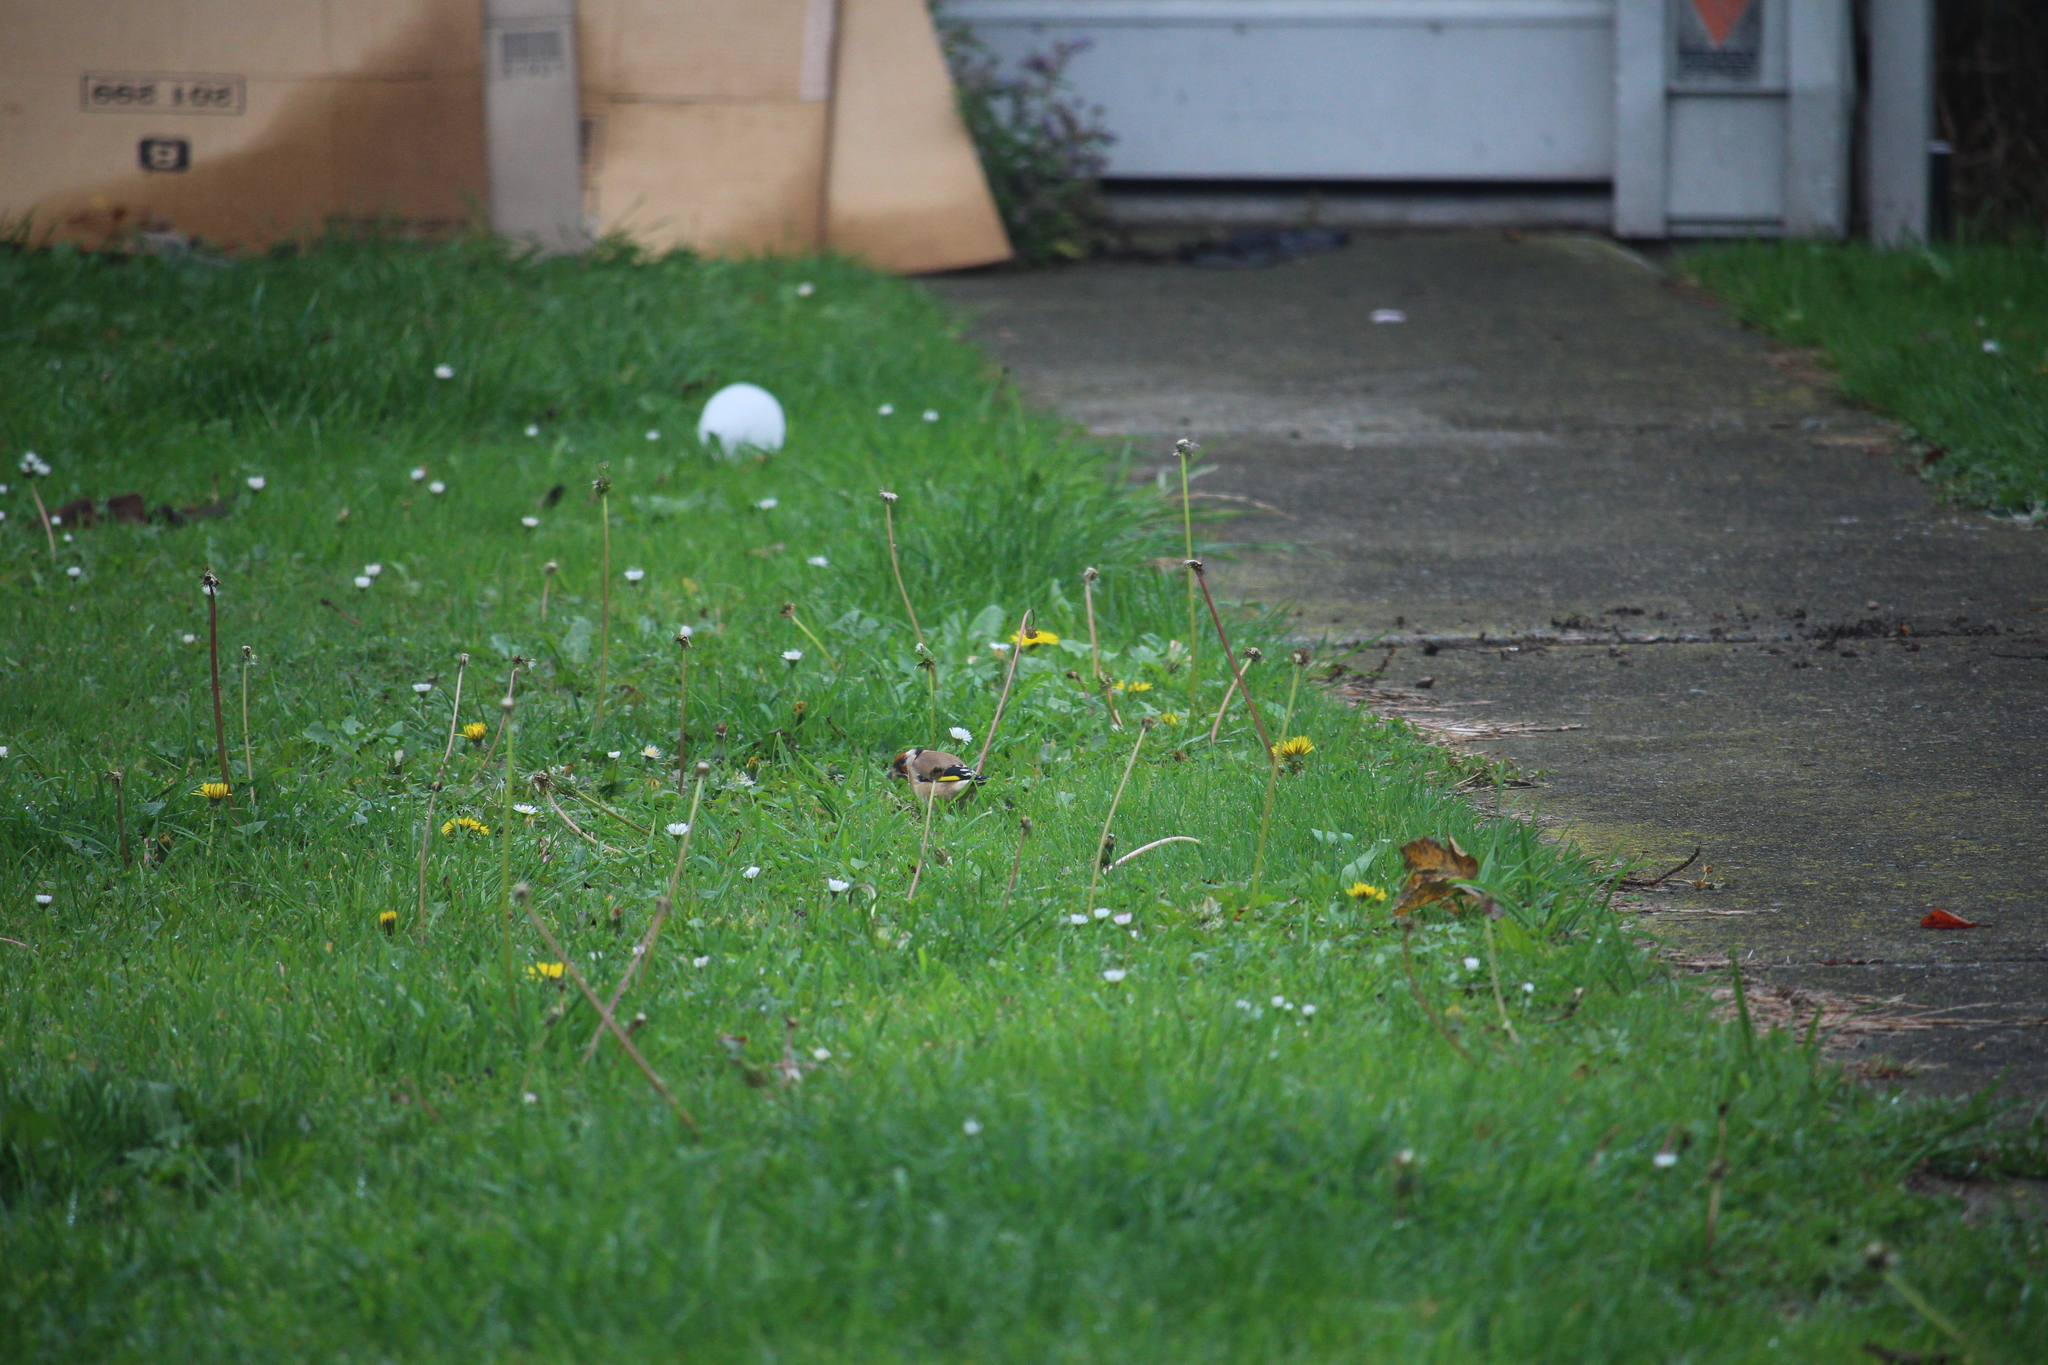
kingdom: Animalia
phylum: Chordata
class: Aves
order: Passeriformes
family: Fringillidae
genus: Carduelis
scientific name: Carduelis carduelis
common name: European goldfinch
